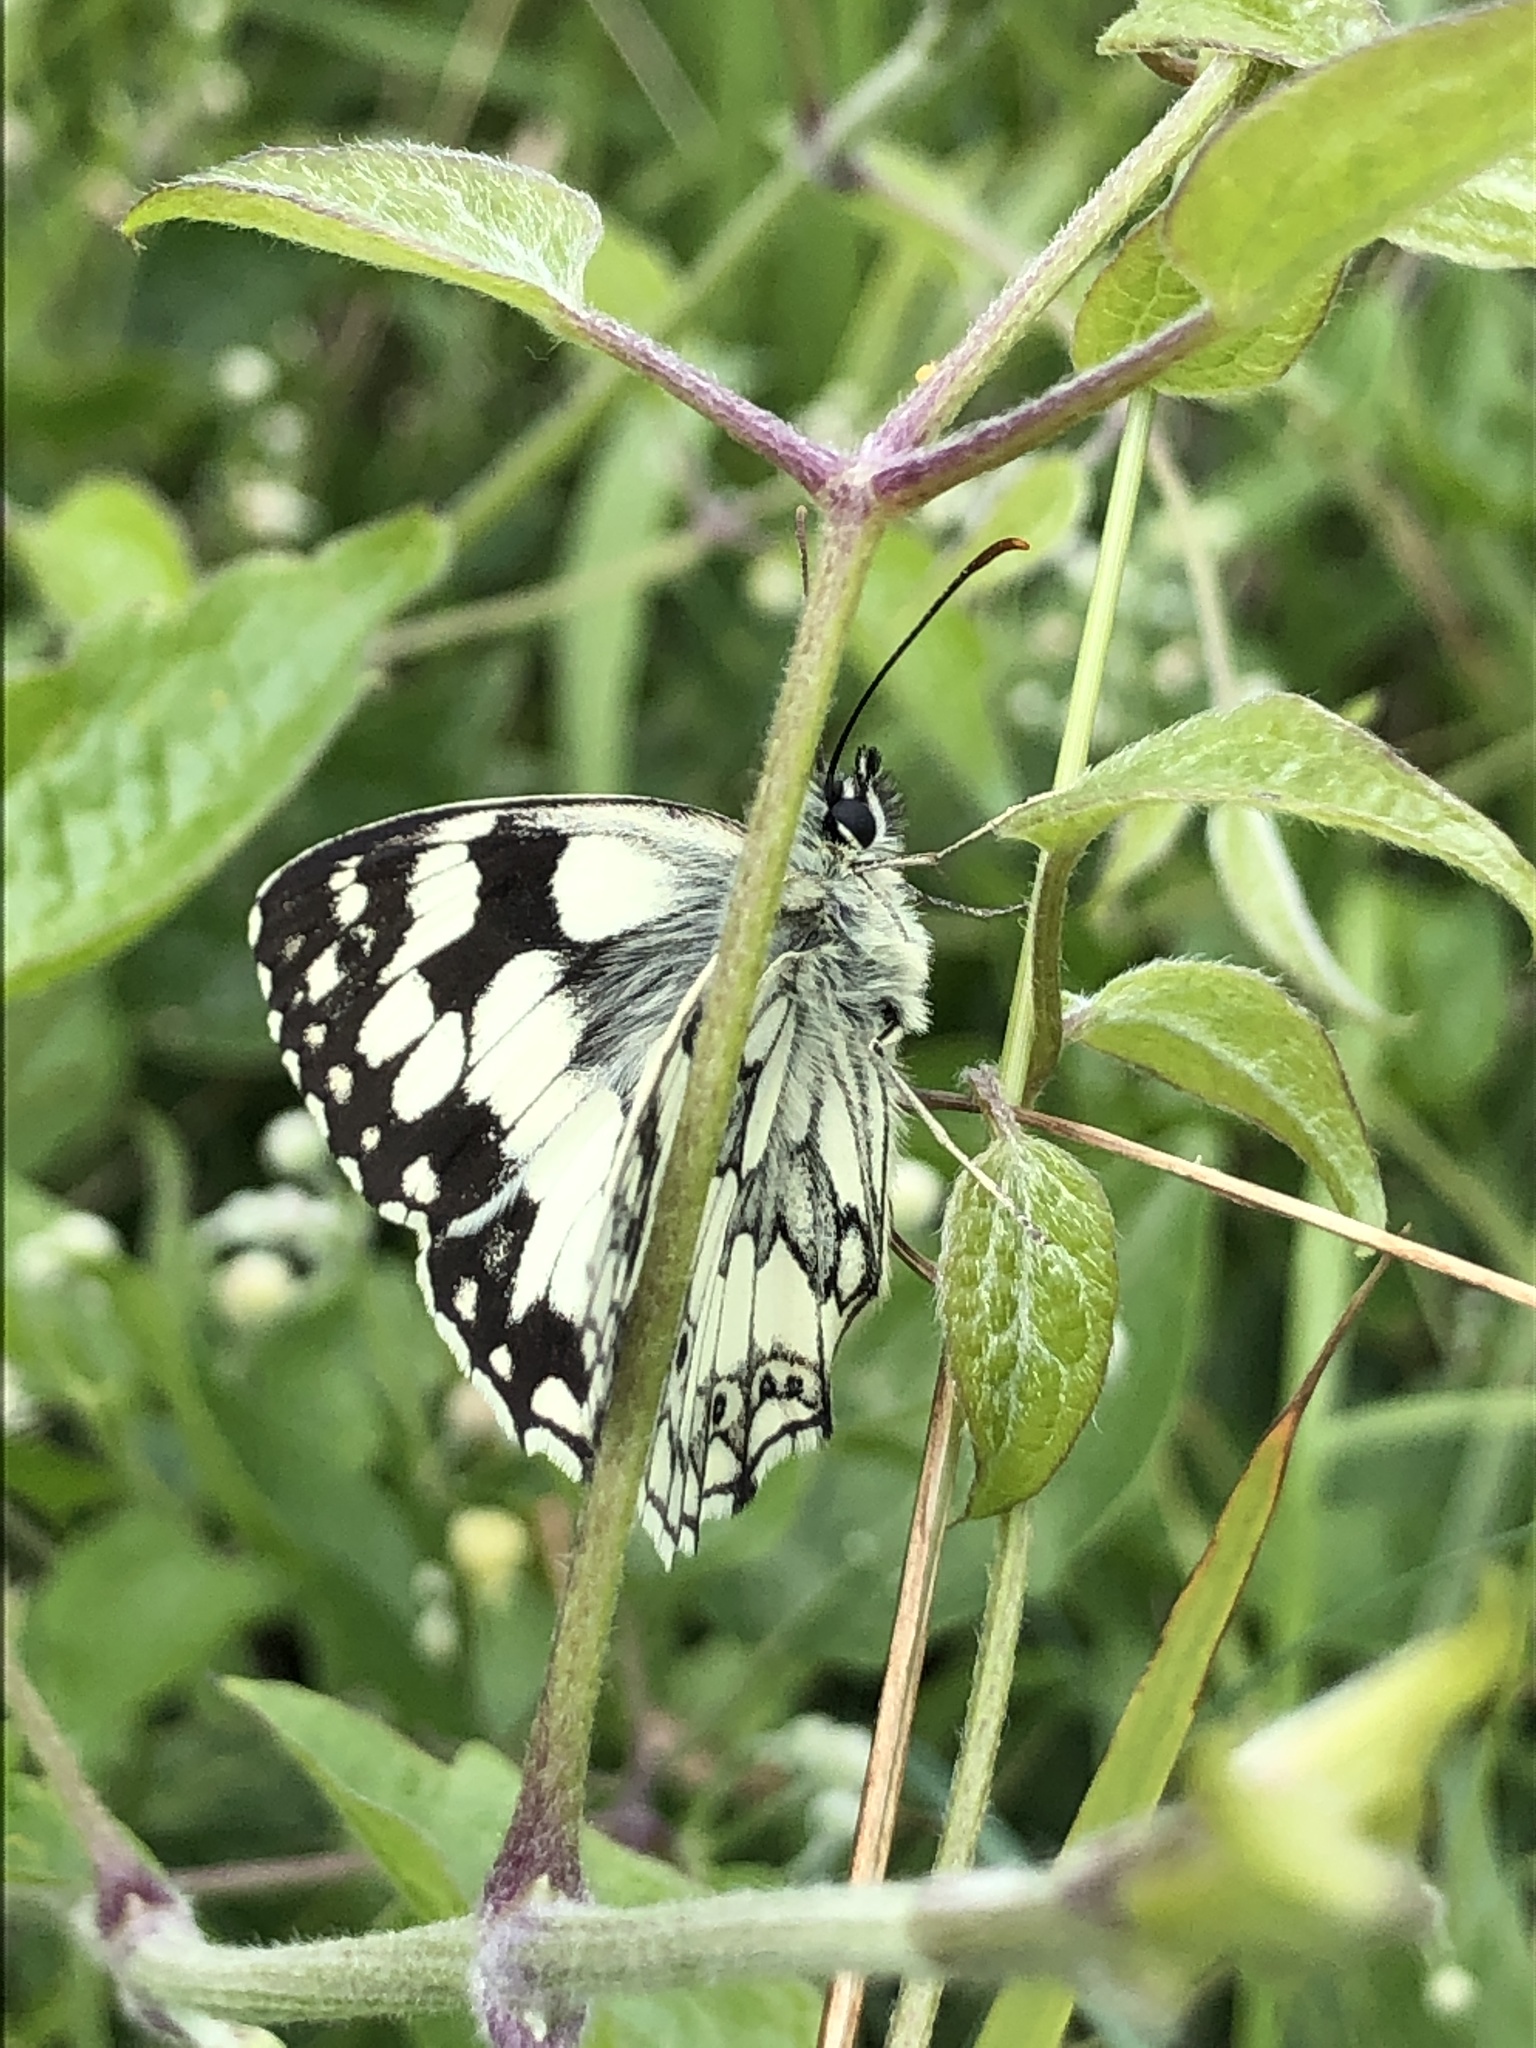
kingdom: Animalia
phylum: Arthropoda
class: Insecta
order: Lepidoptera
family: Nymphalidae
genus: Melanargia
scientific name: Melanargia galathea
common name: Marbled white
